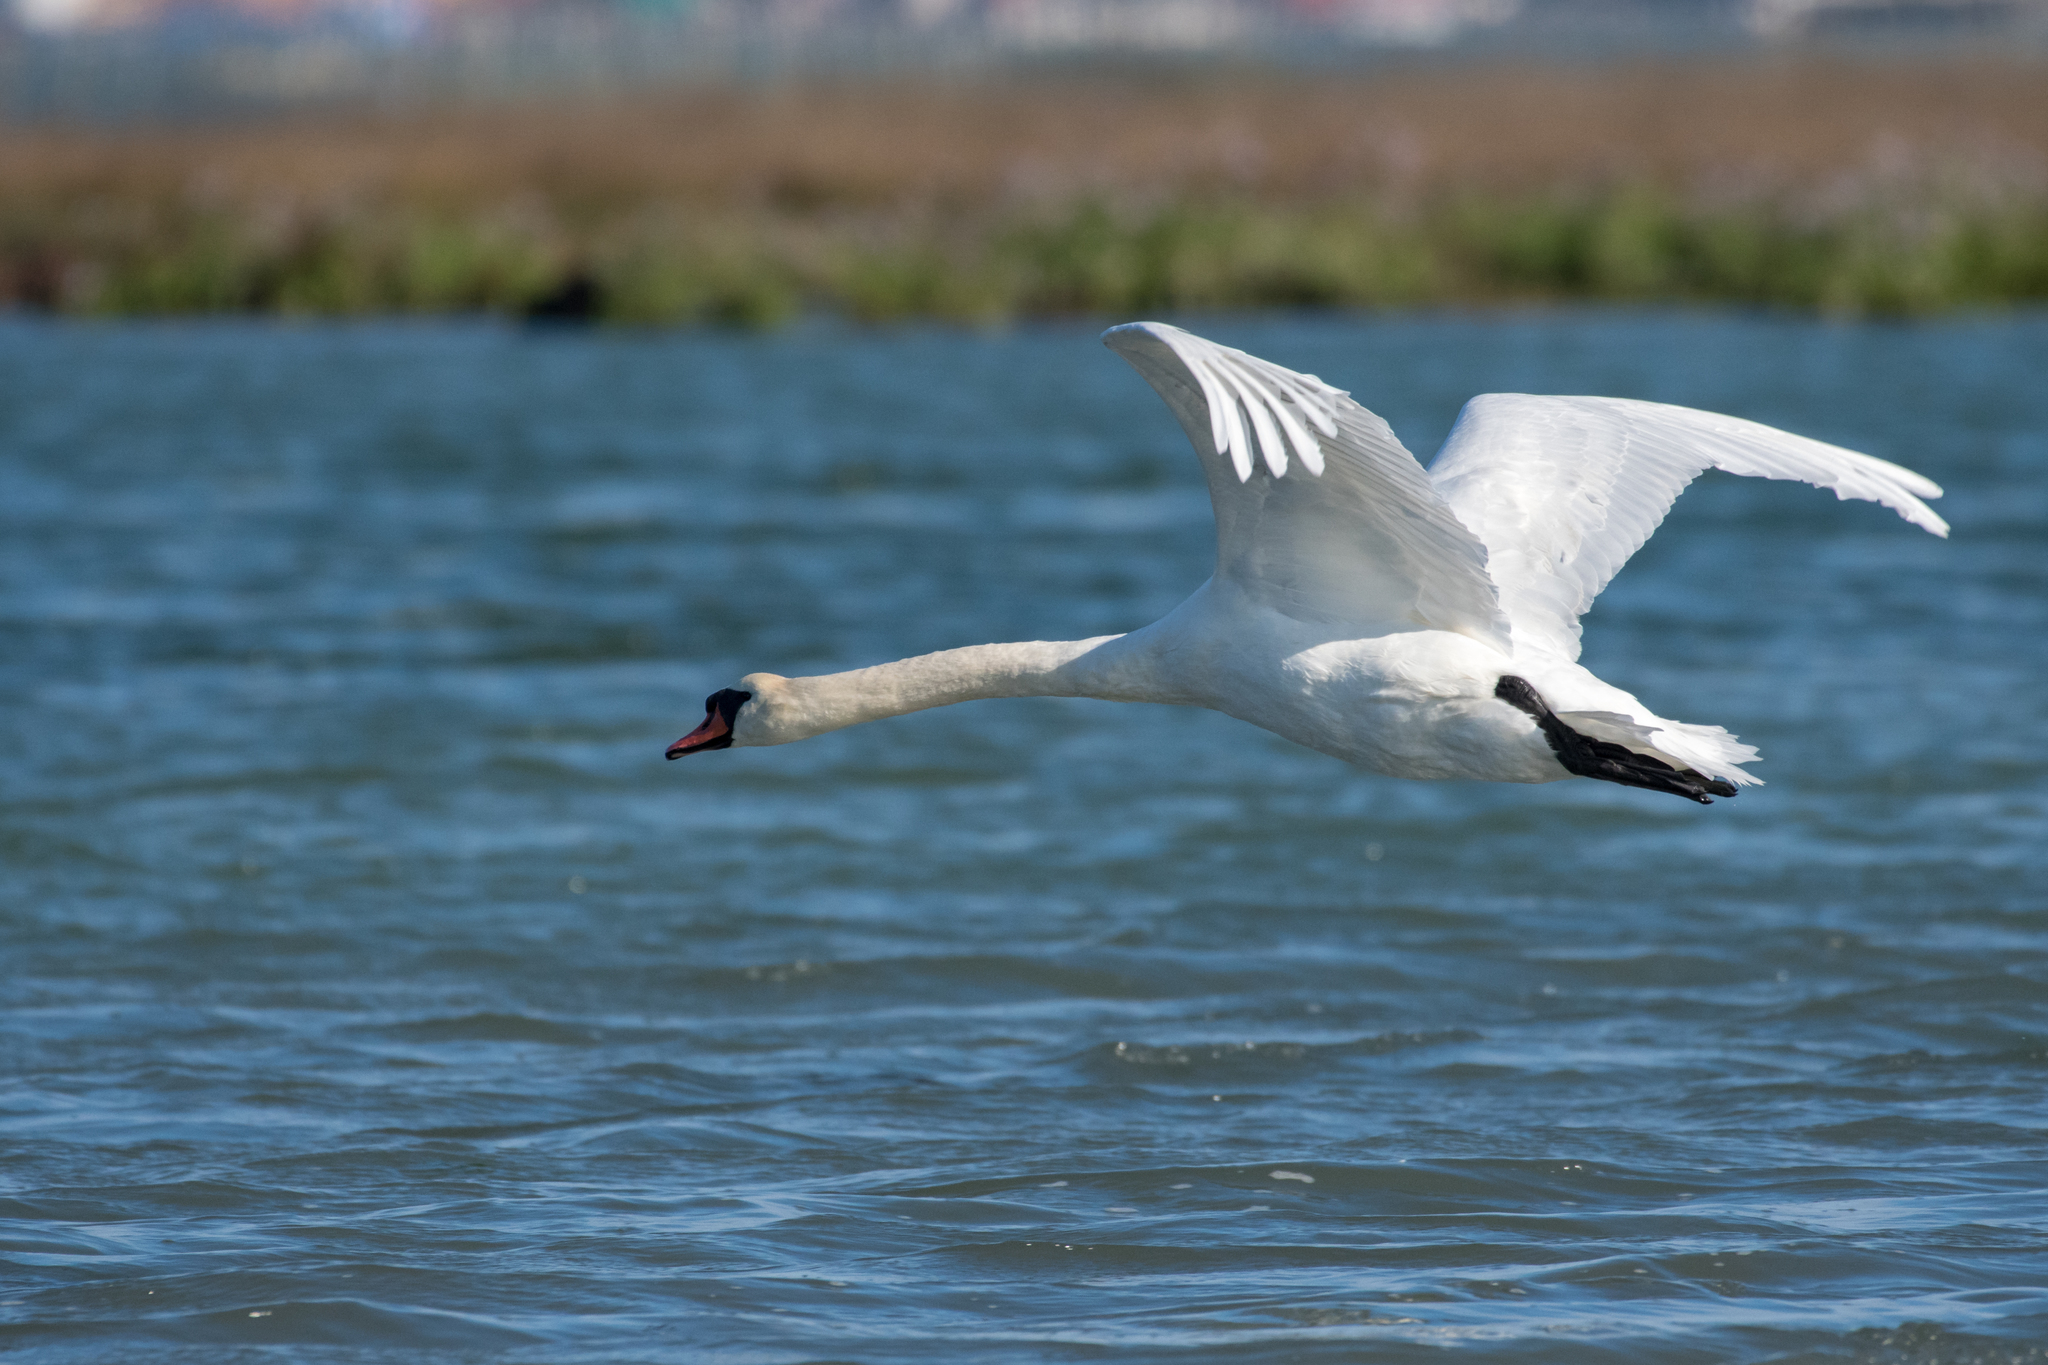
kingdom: Animalia
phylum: Chordata
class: Aves
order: Anseriformes
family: Anatidae
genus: Cygnus
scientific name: Cygnus olor
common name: Mute swan
